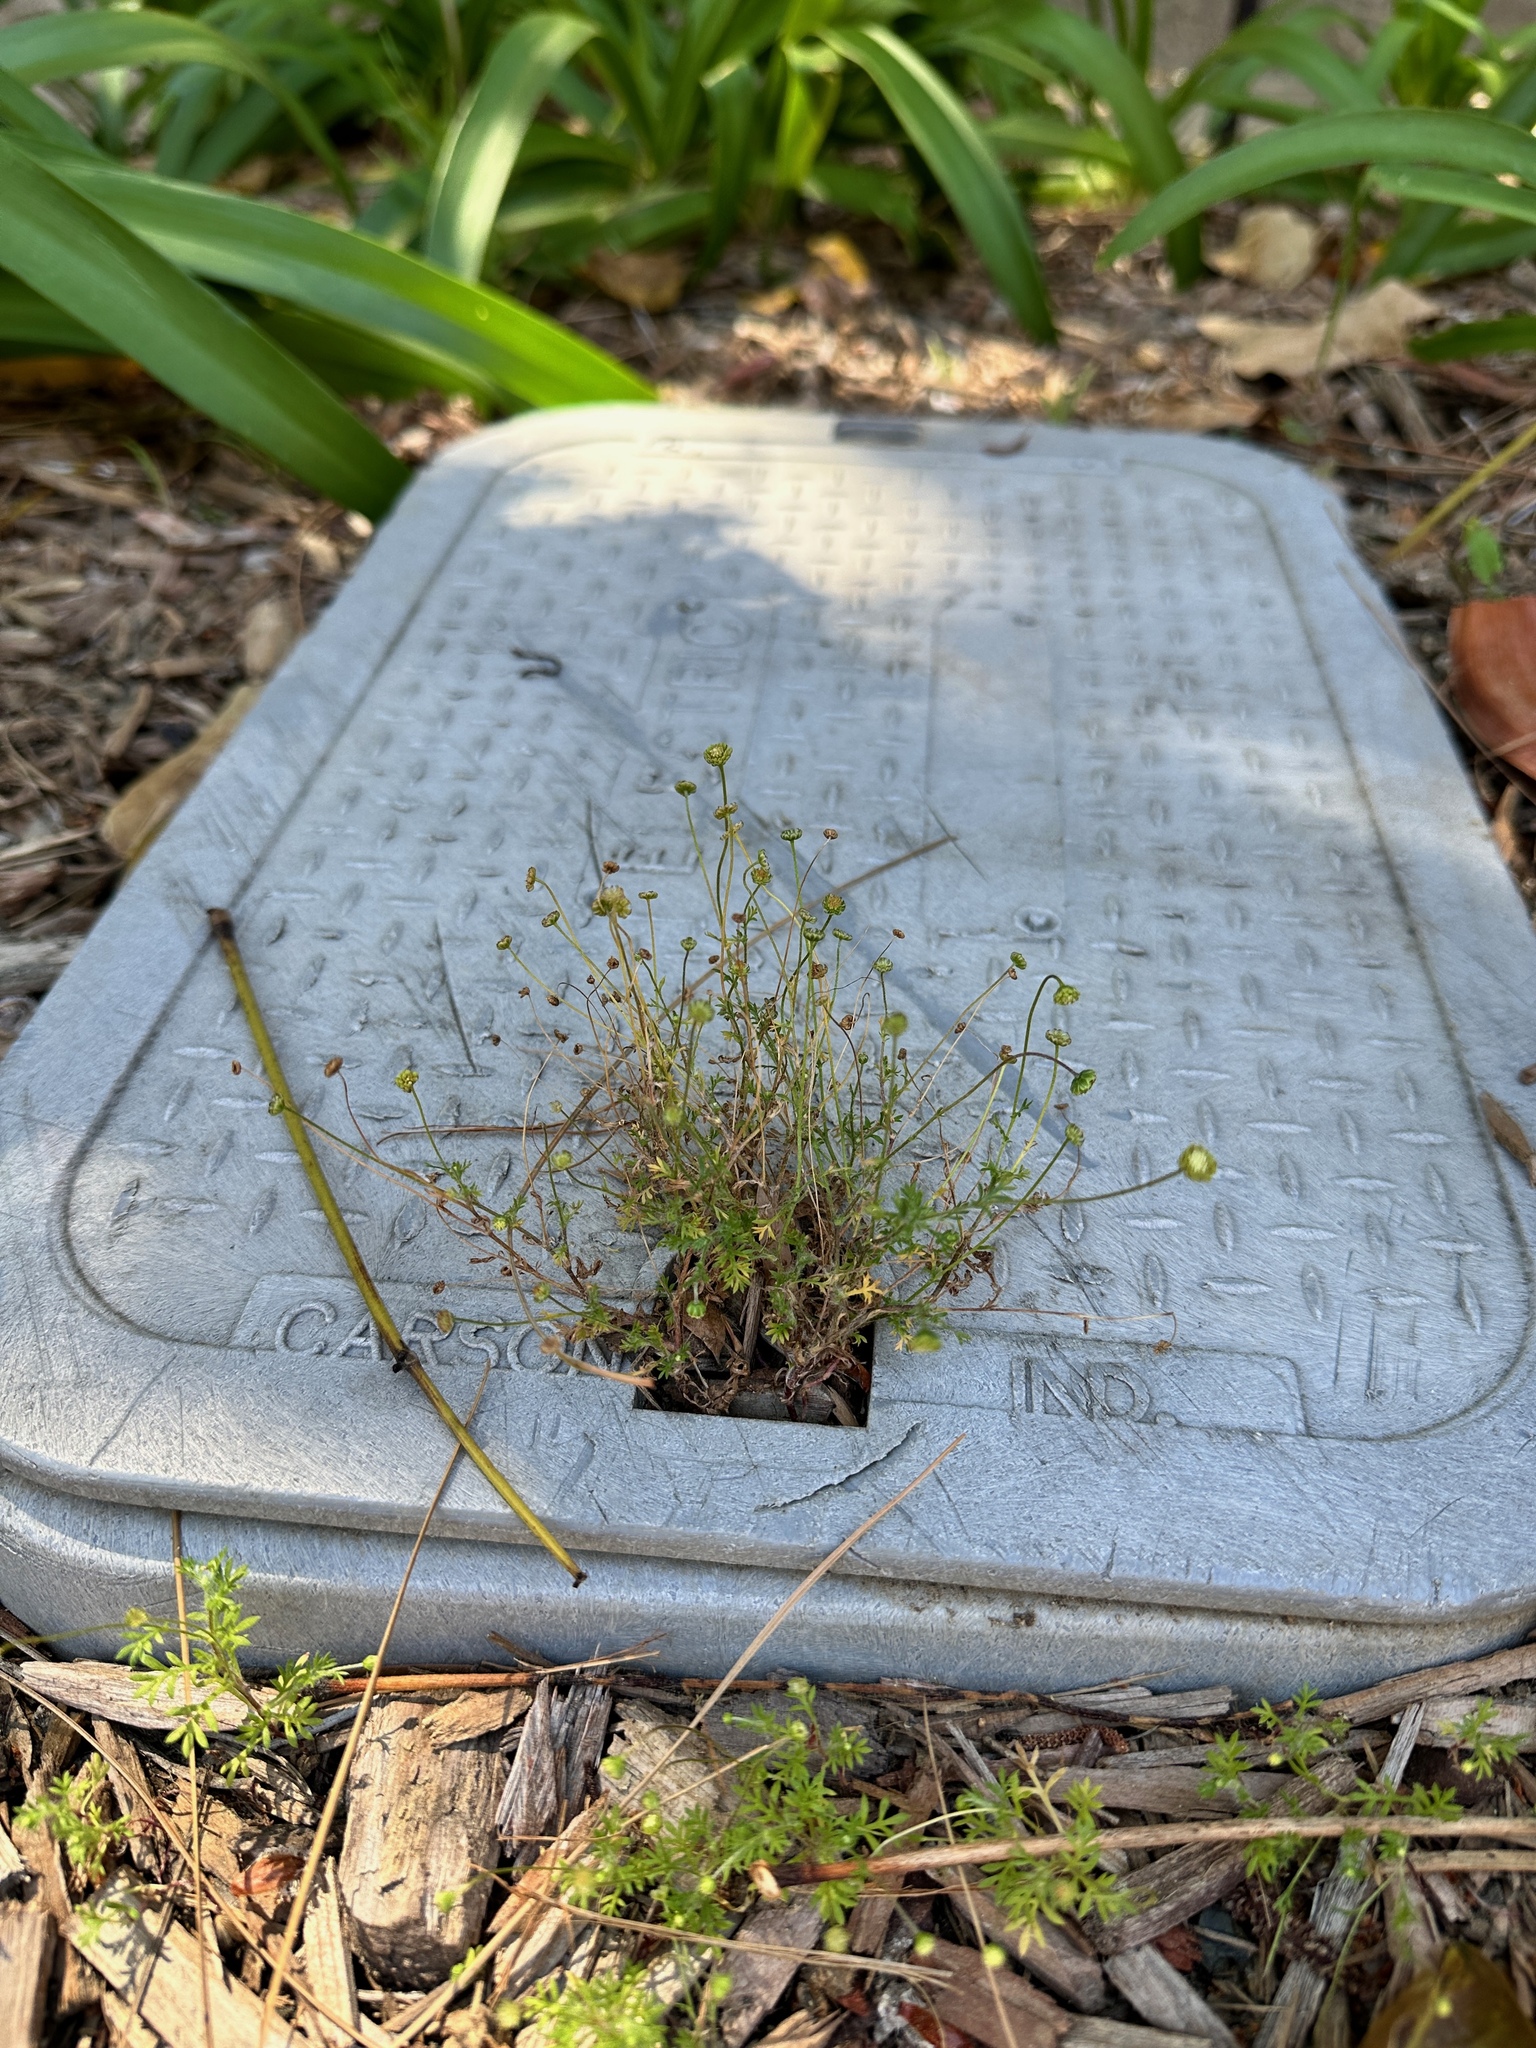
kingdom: Plantae
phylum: Tracheophyta
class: Magnoliopsida
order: Asterales
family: Asteraceae
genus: Cotula
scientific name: Cotula australis
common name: Australian waterbuttons
